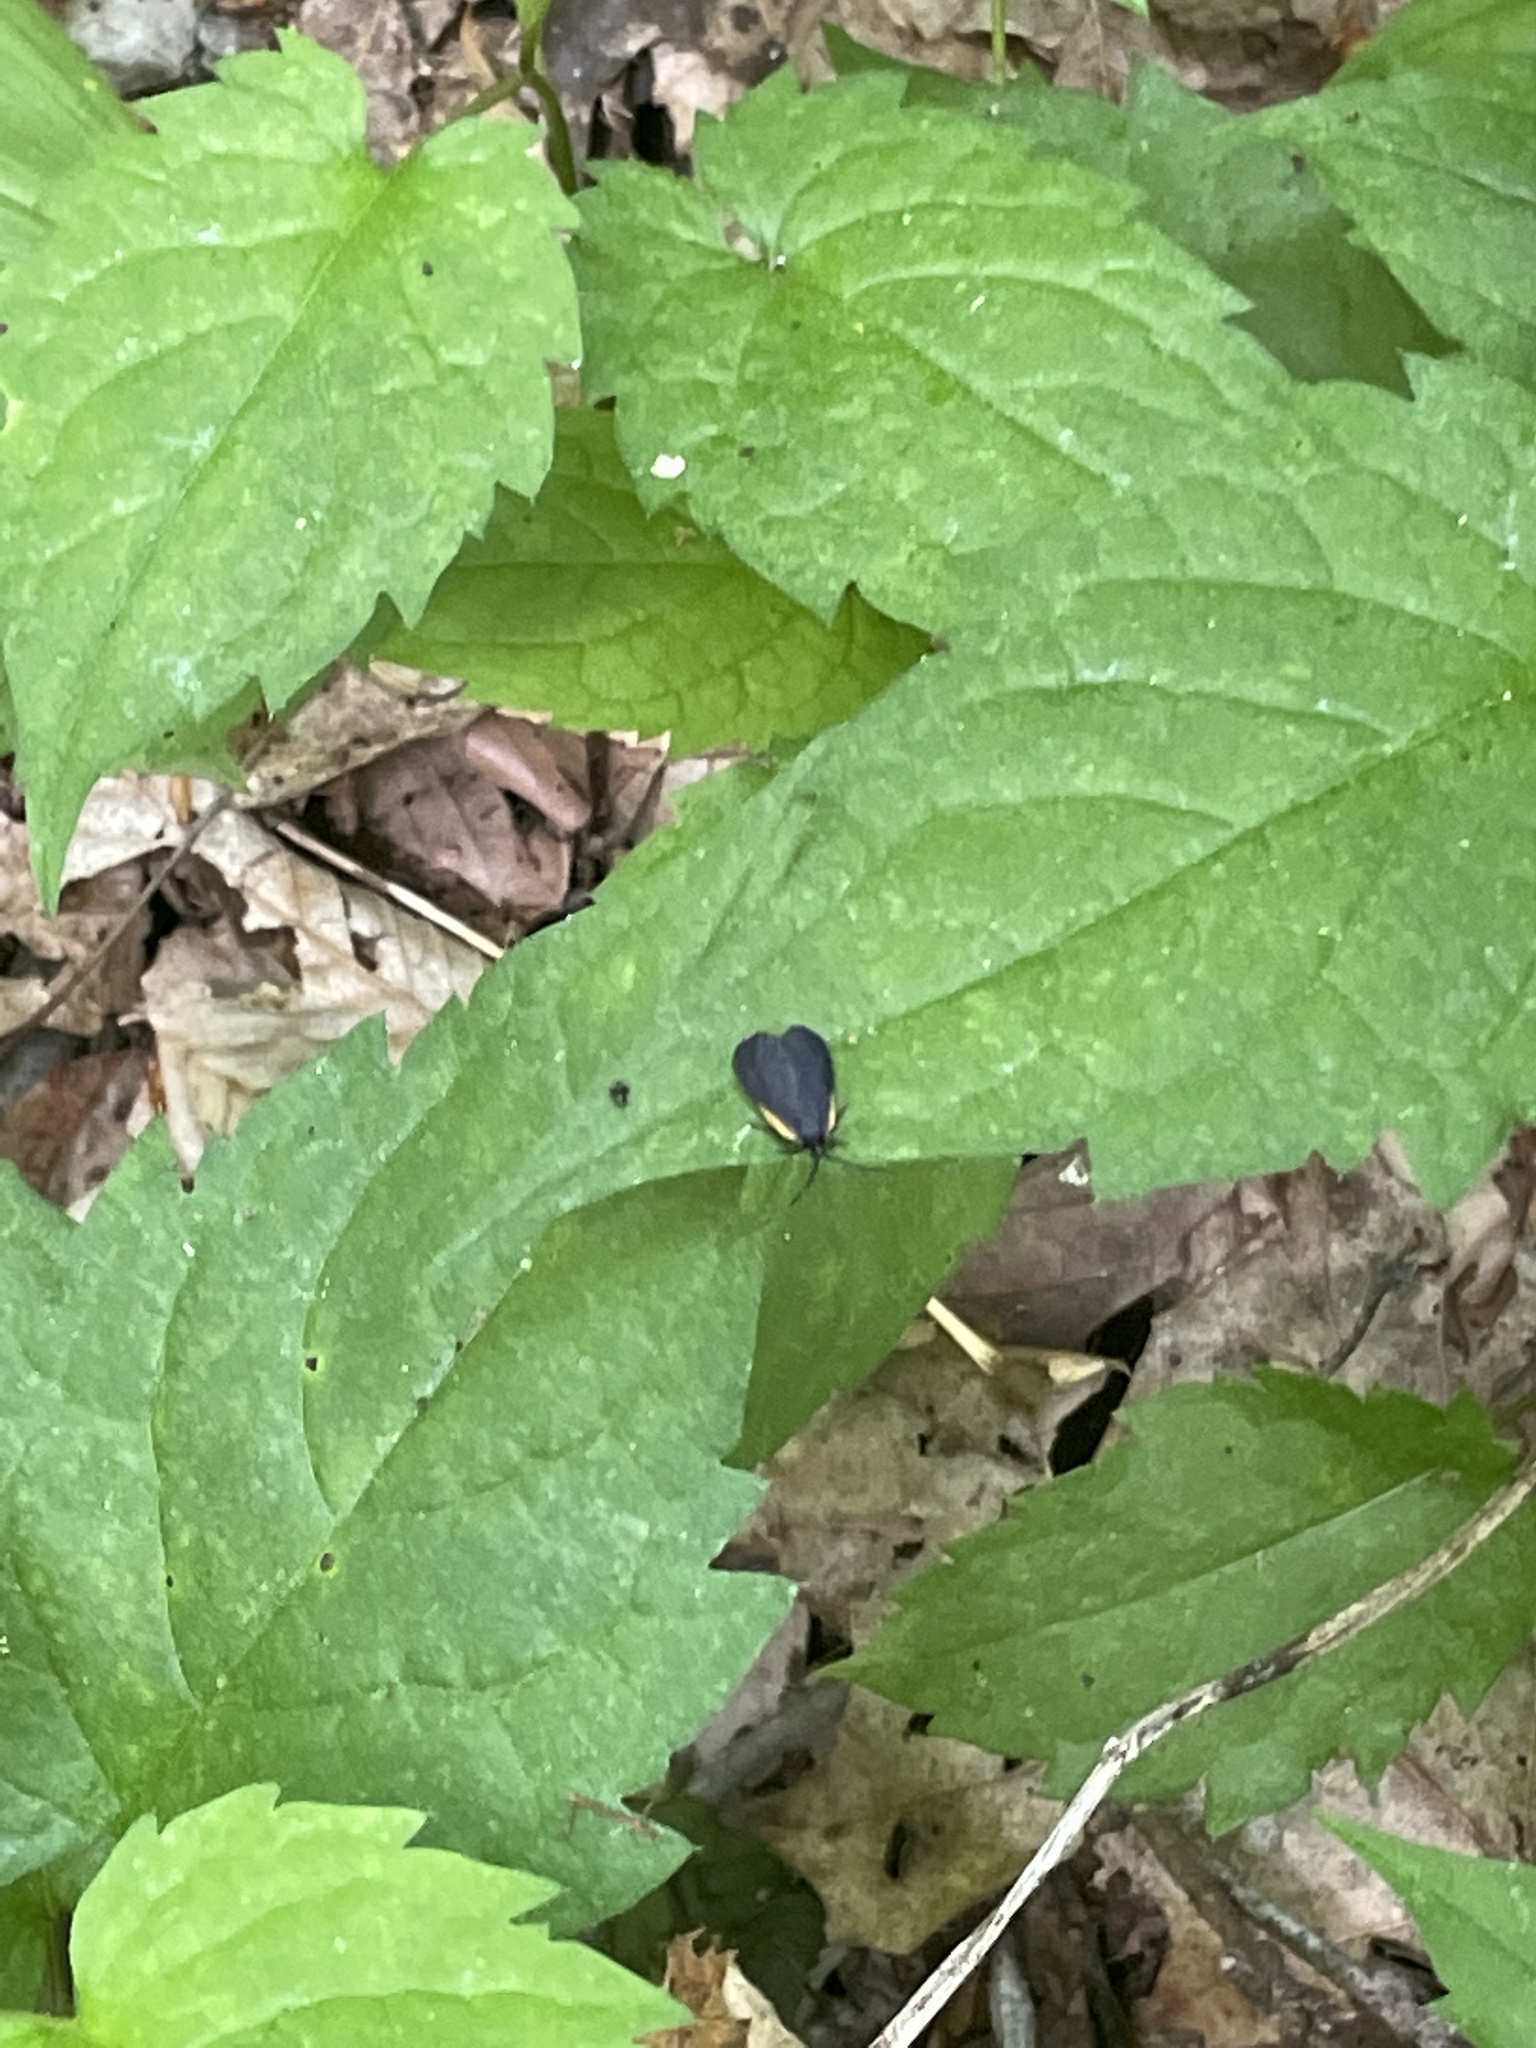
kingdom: Animalia
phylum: Arthropoda
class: Insecta
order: Lepidoptera
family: Zygaenidae
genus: Malthaca
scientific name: Malthaca dimidiata
